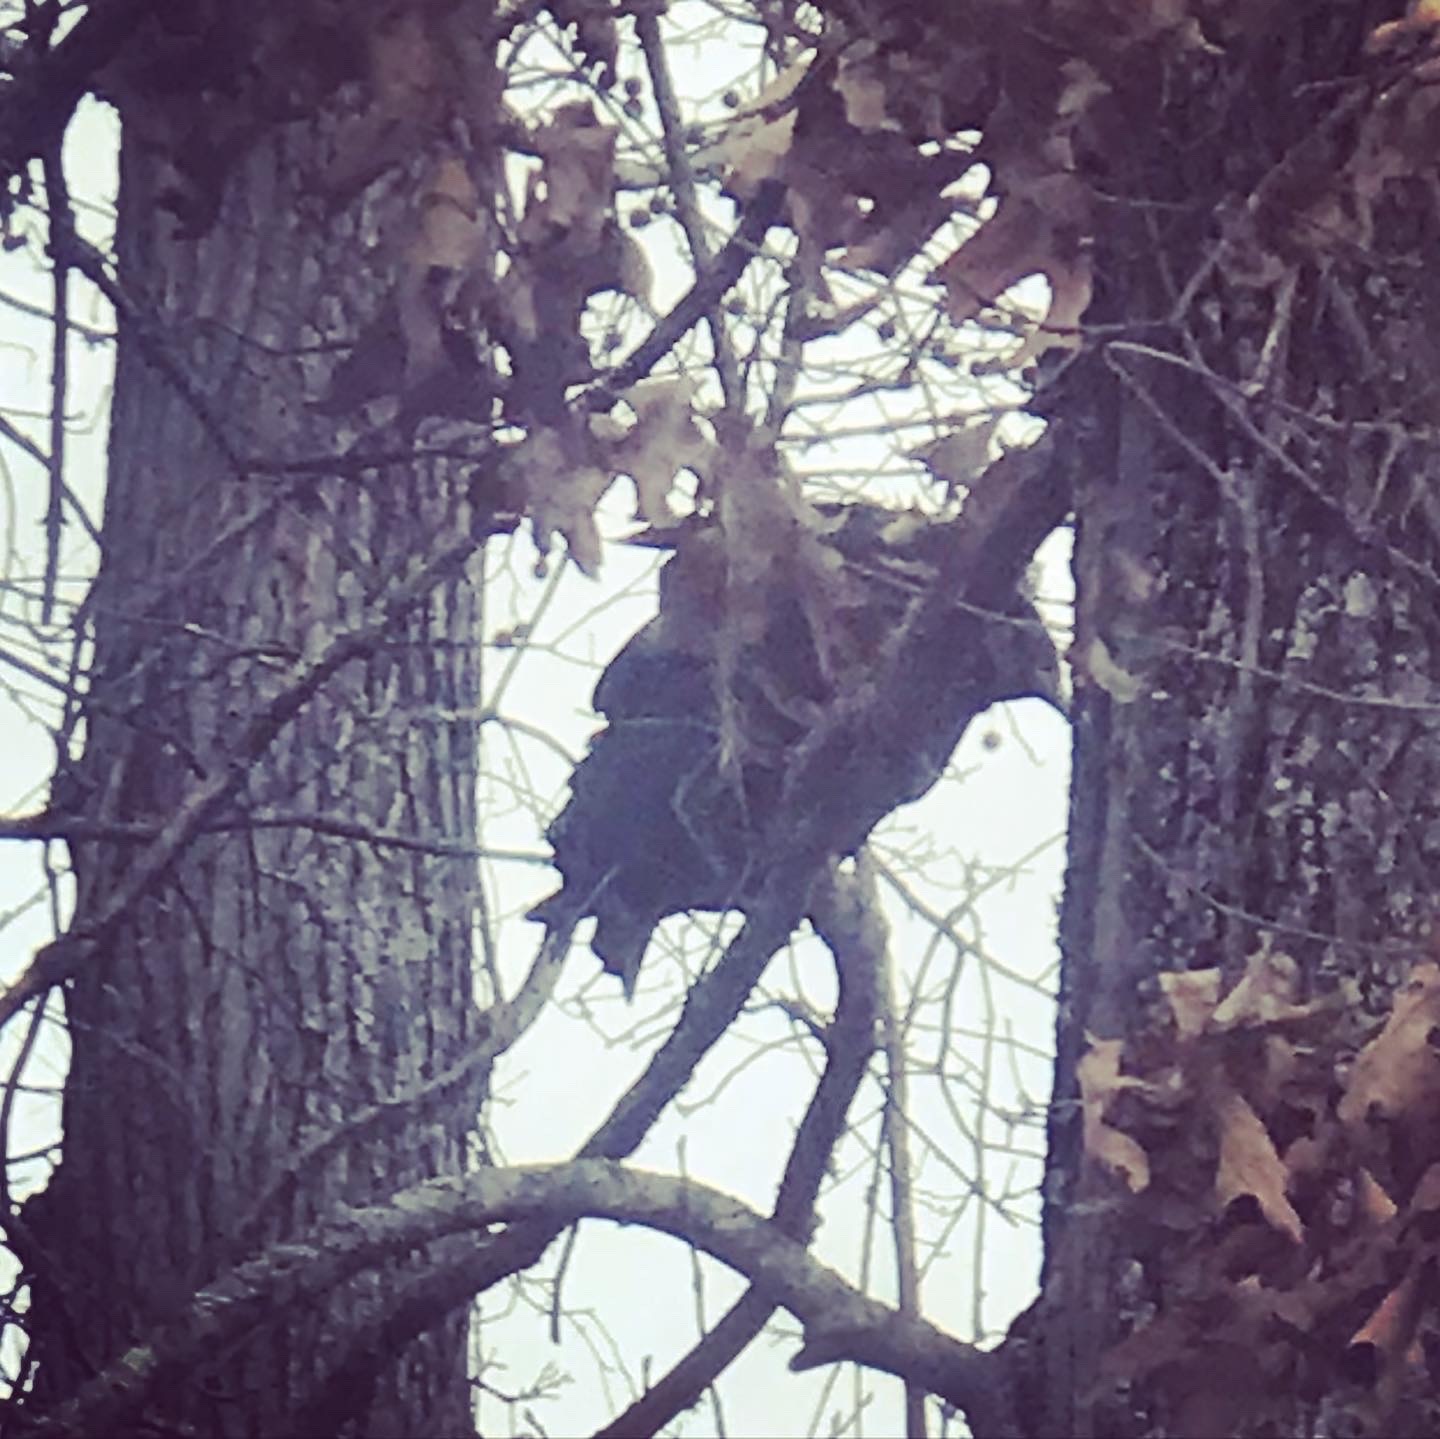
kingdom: Animalia
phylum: Chordata
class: Aves
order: Accipitriformes
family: Cathartidae
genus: Coragyps
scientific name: Coragyps atratus
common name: Black vulture
